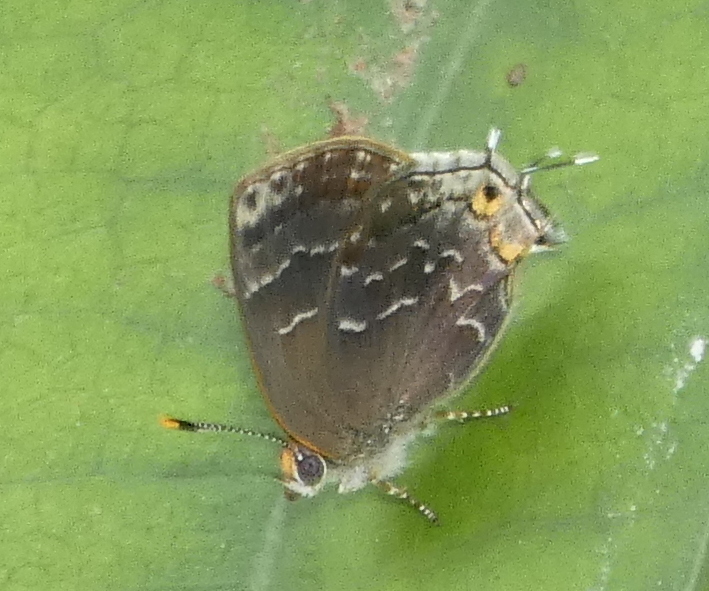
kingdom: Animalia
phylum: Arthropoda
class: Insecta
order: Lepidoptera
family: Lycaenidae
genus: Ocaria
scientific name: Ocaria ocrisia
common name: Black hairstreak
